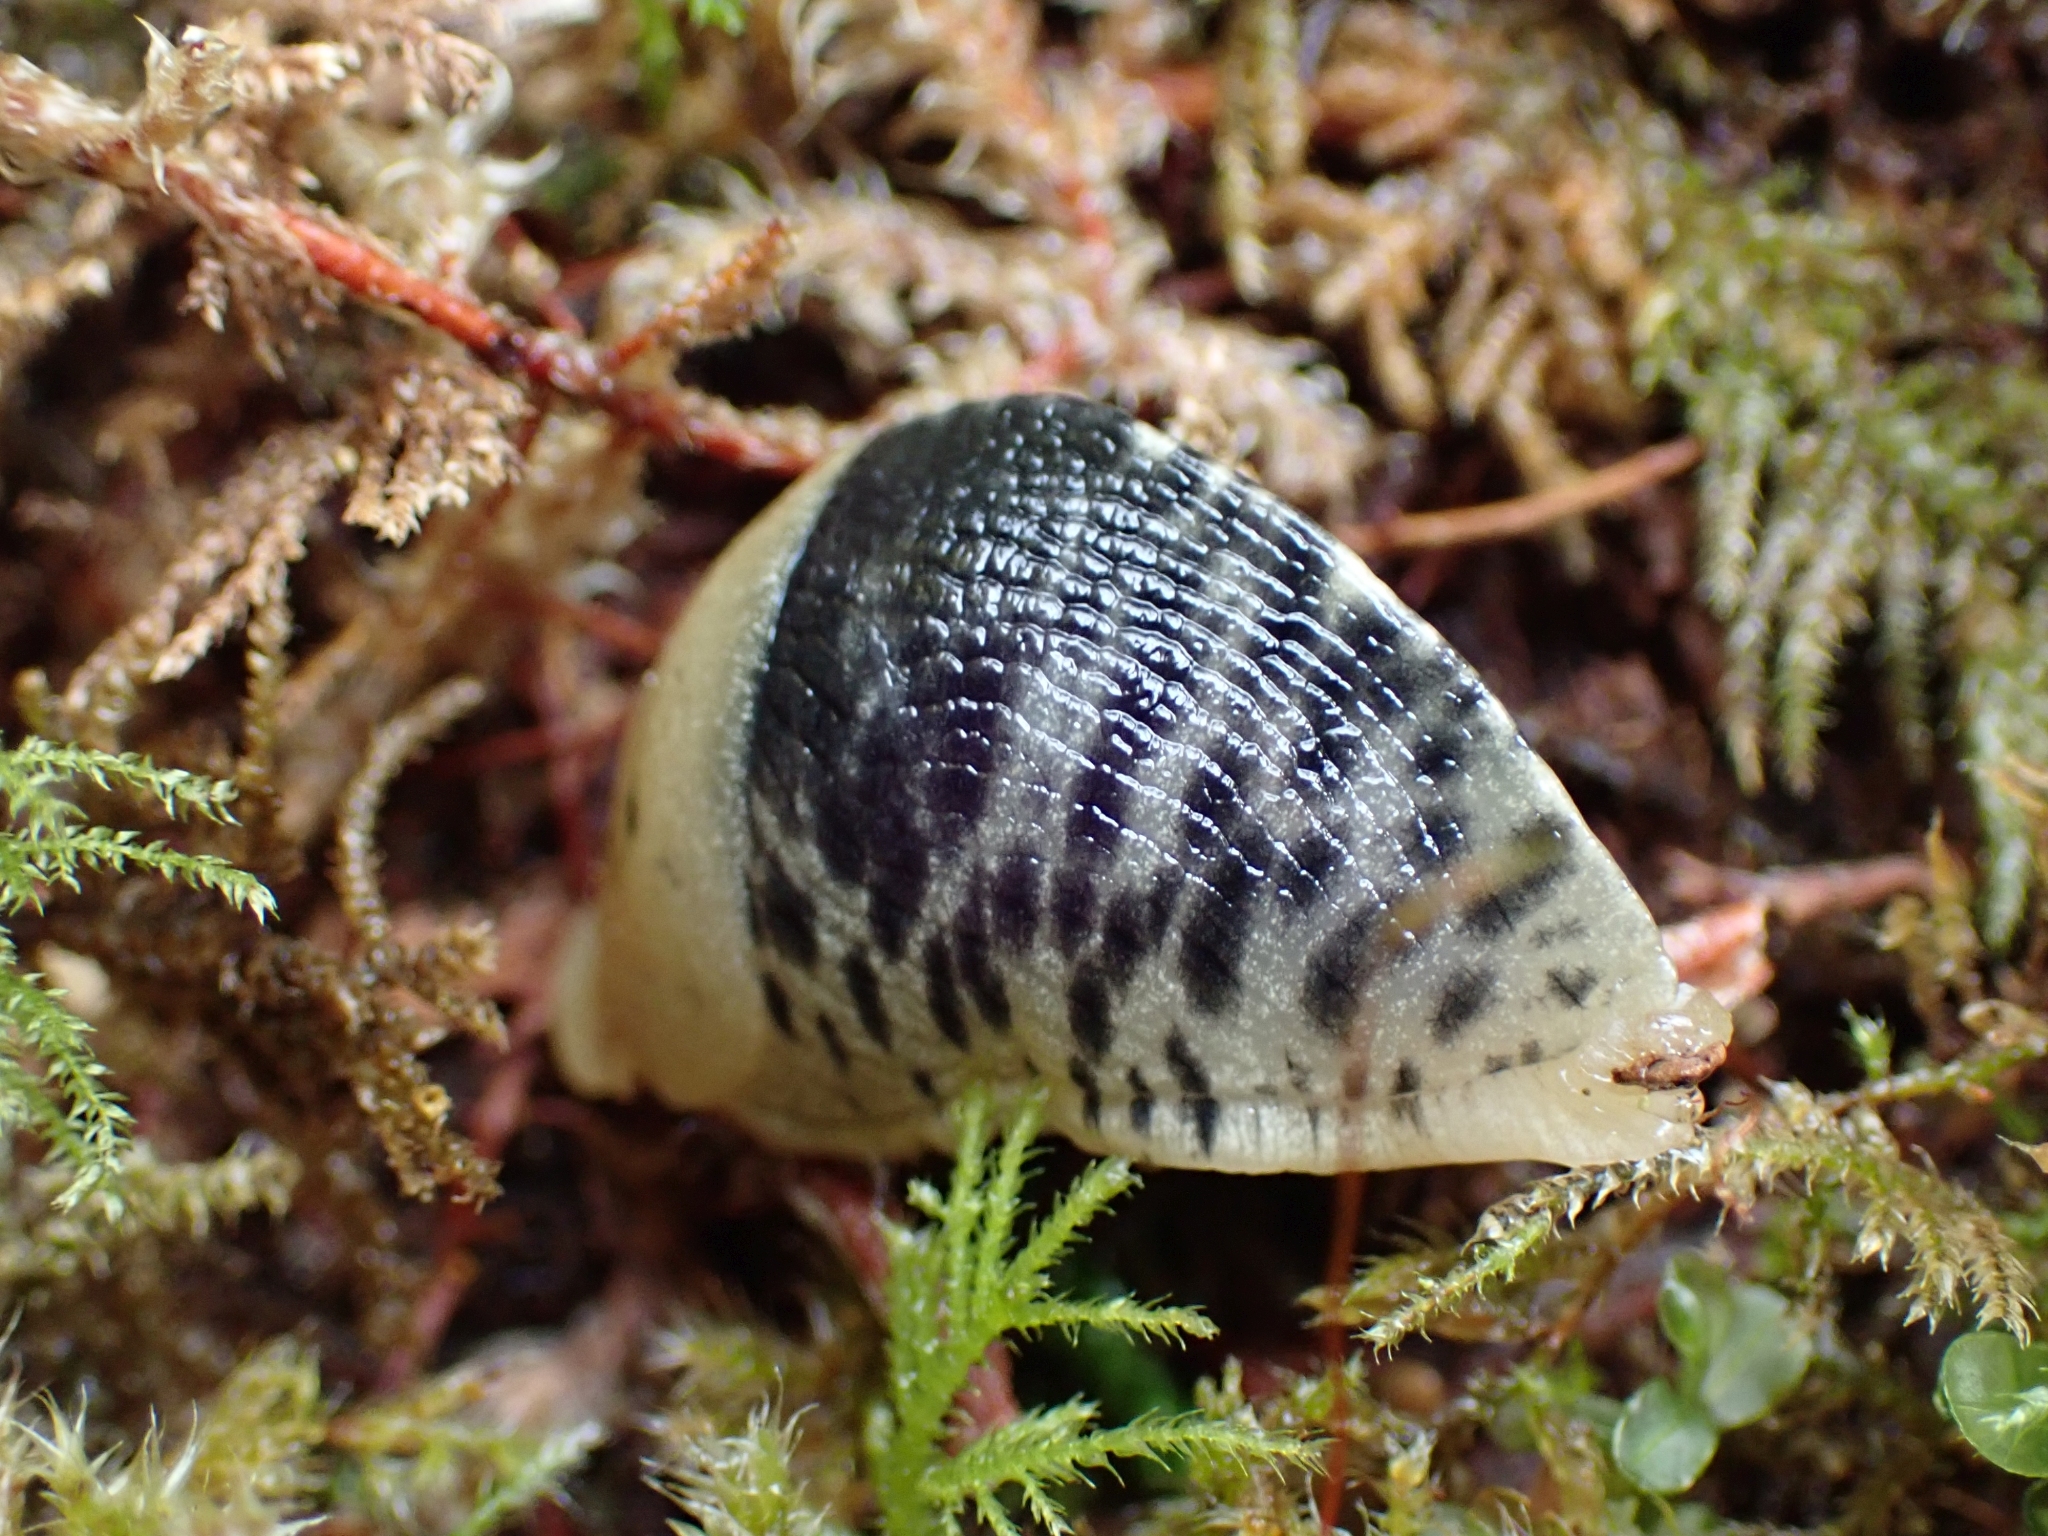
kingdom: Animalia
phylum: Mollusca
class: Gastropoda
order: Stylommatophora
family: Ariolimacidae
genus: Ariolimax
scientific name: Ariolimax columbianus
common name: Pacific banana slug
